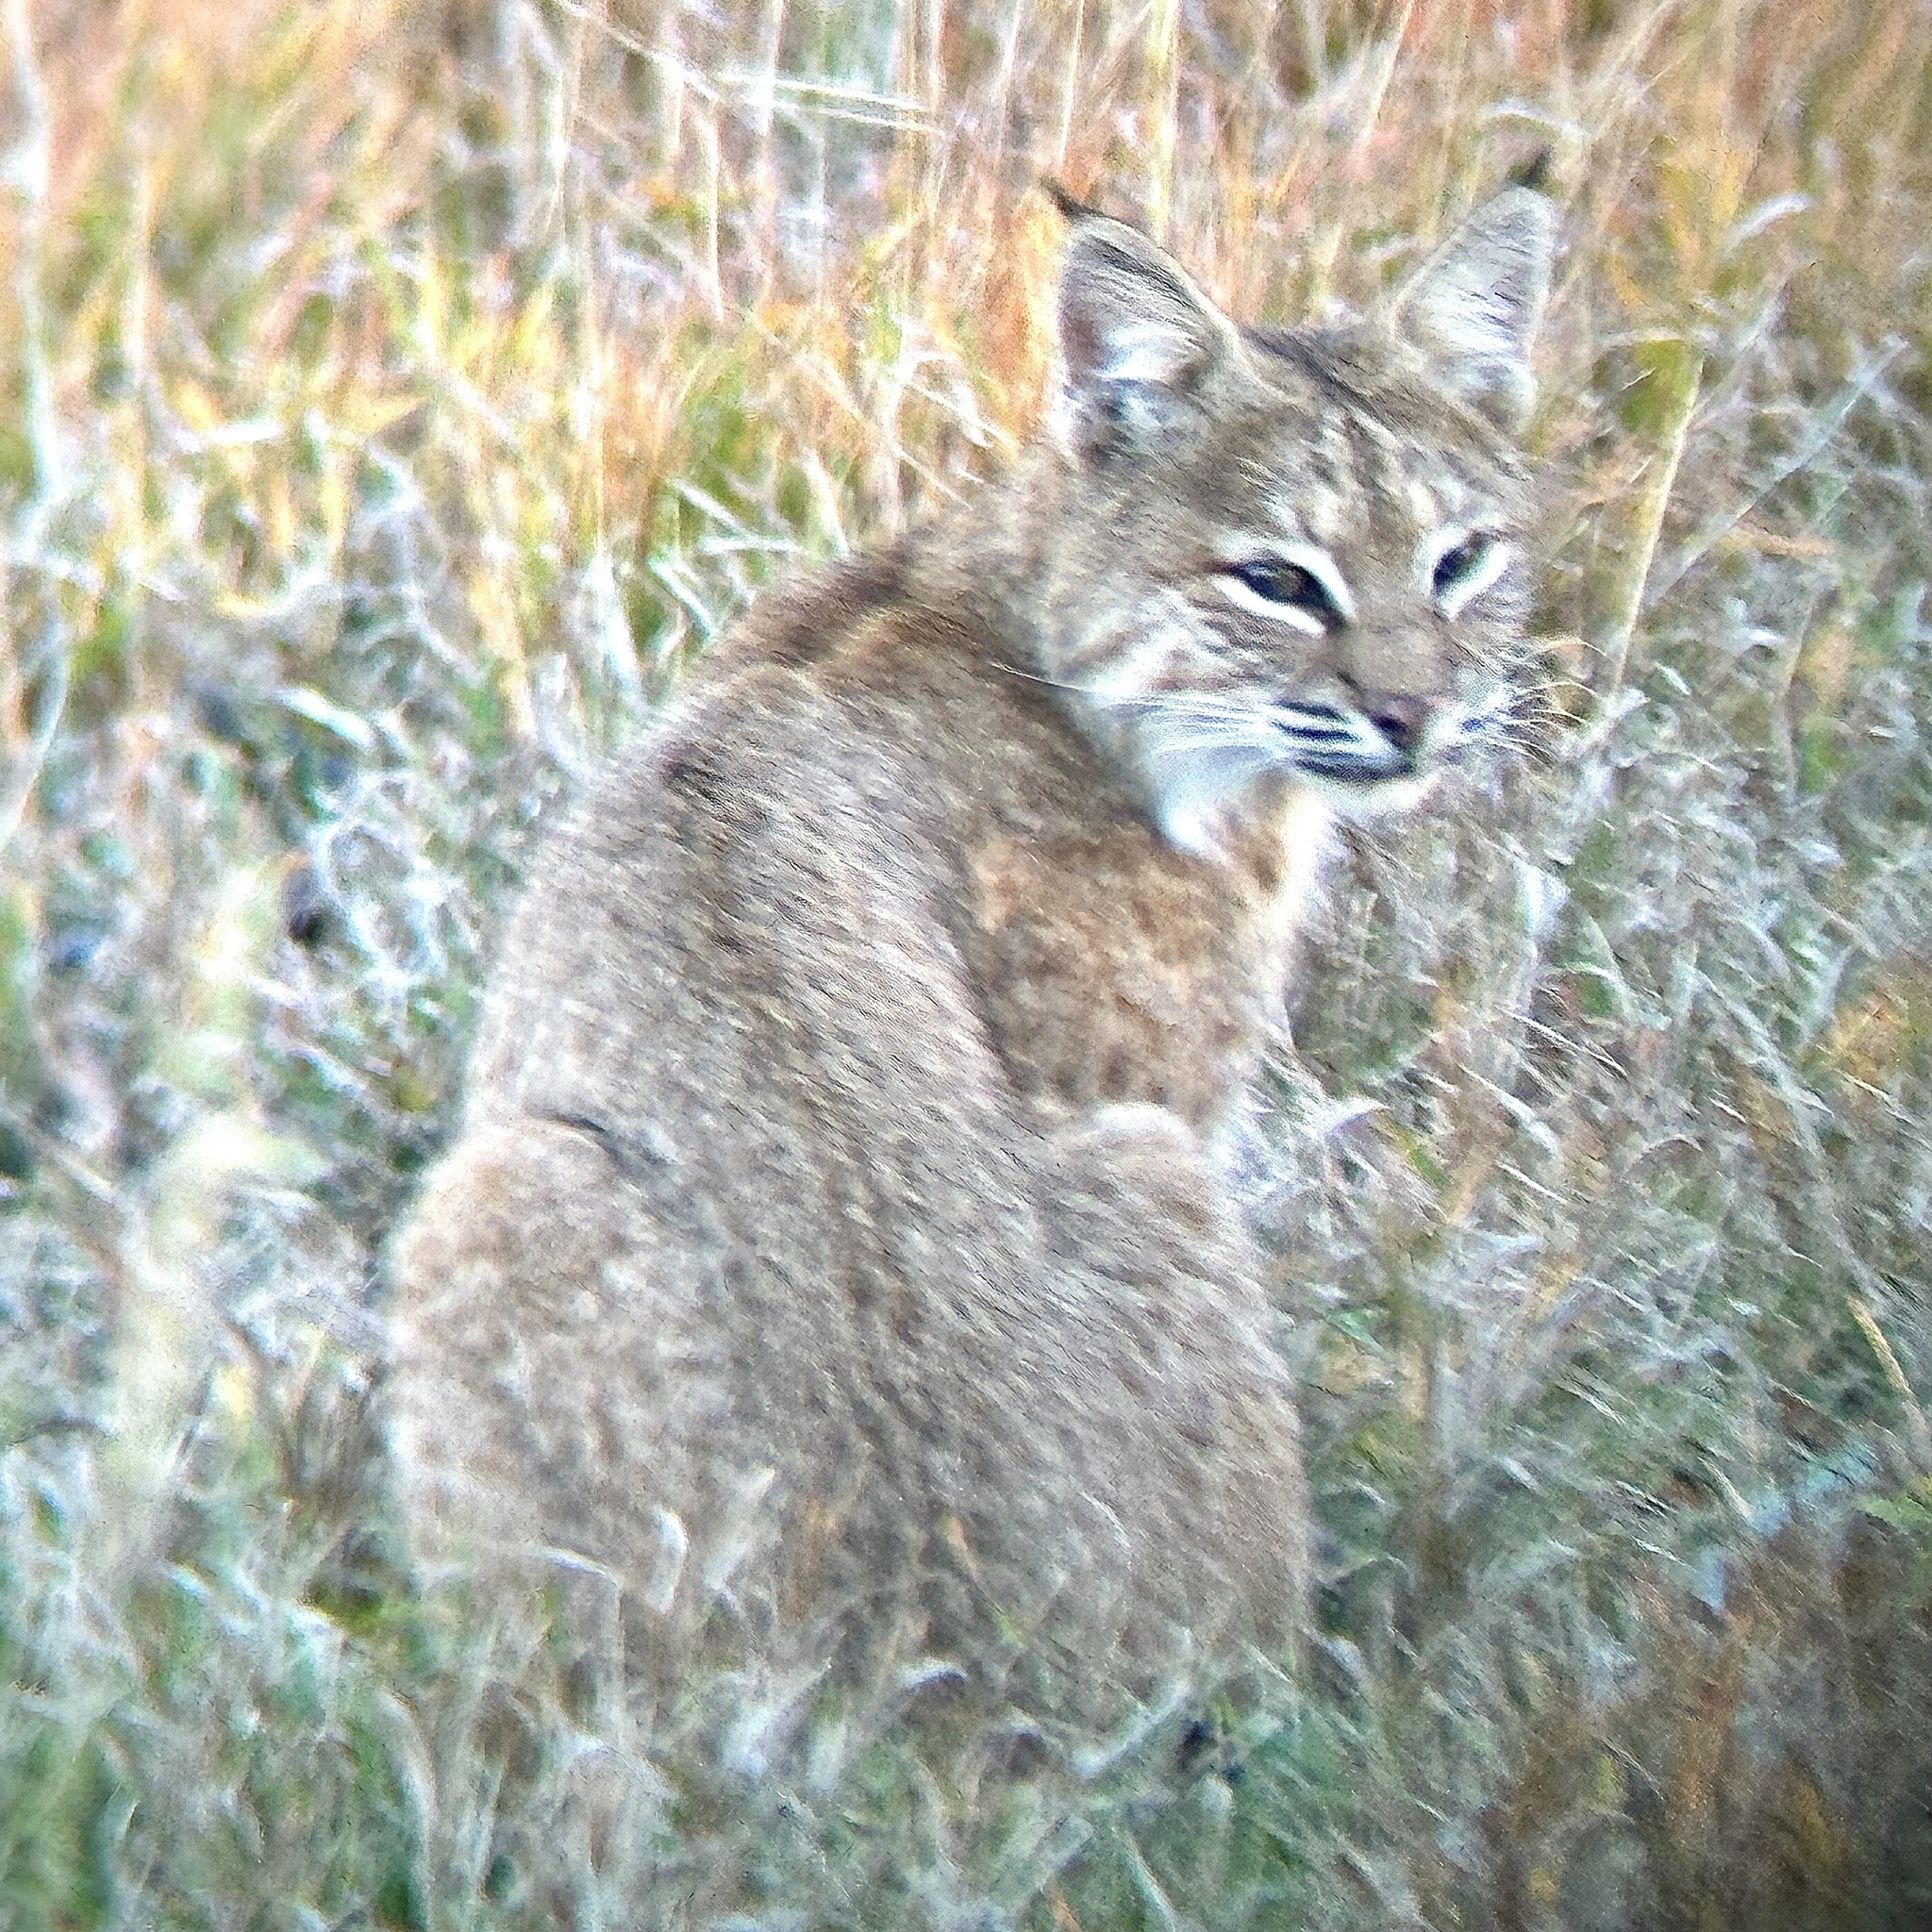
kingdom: Animalia
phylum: Chordata
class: Mammalia
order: Carnivora
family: Felidae
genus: Lynx
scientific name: Lynx rufus
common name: Bobcat
